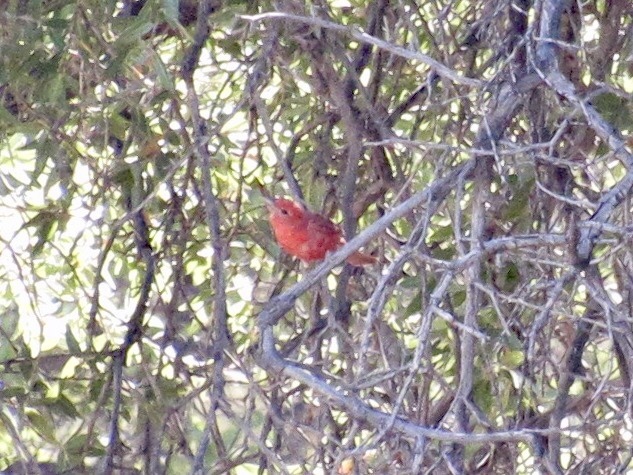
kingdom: Animalia
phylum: Chordata
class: Aves
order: Passeriformes
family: Cardinalidae
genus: Piranga
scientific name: Piranga flava
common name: Red tanager
